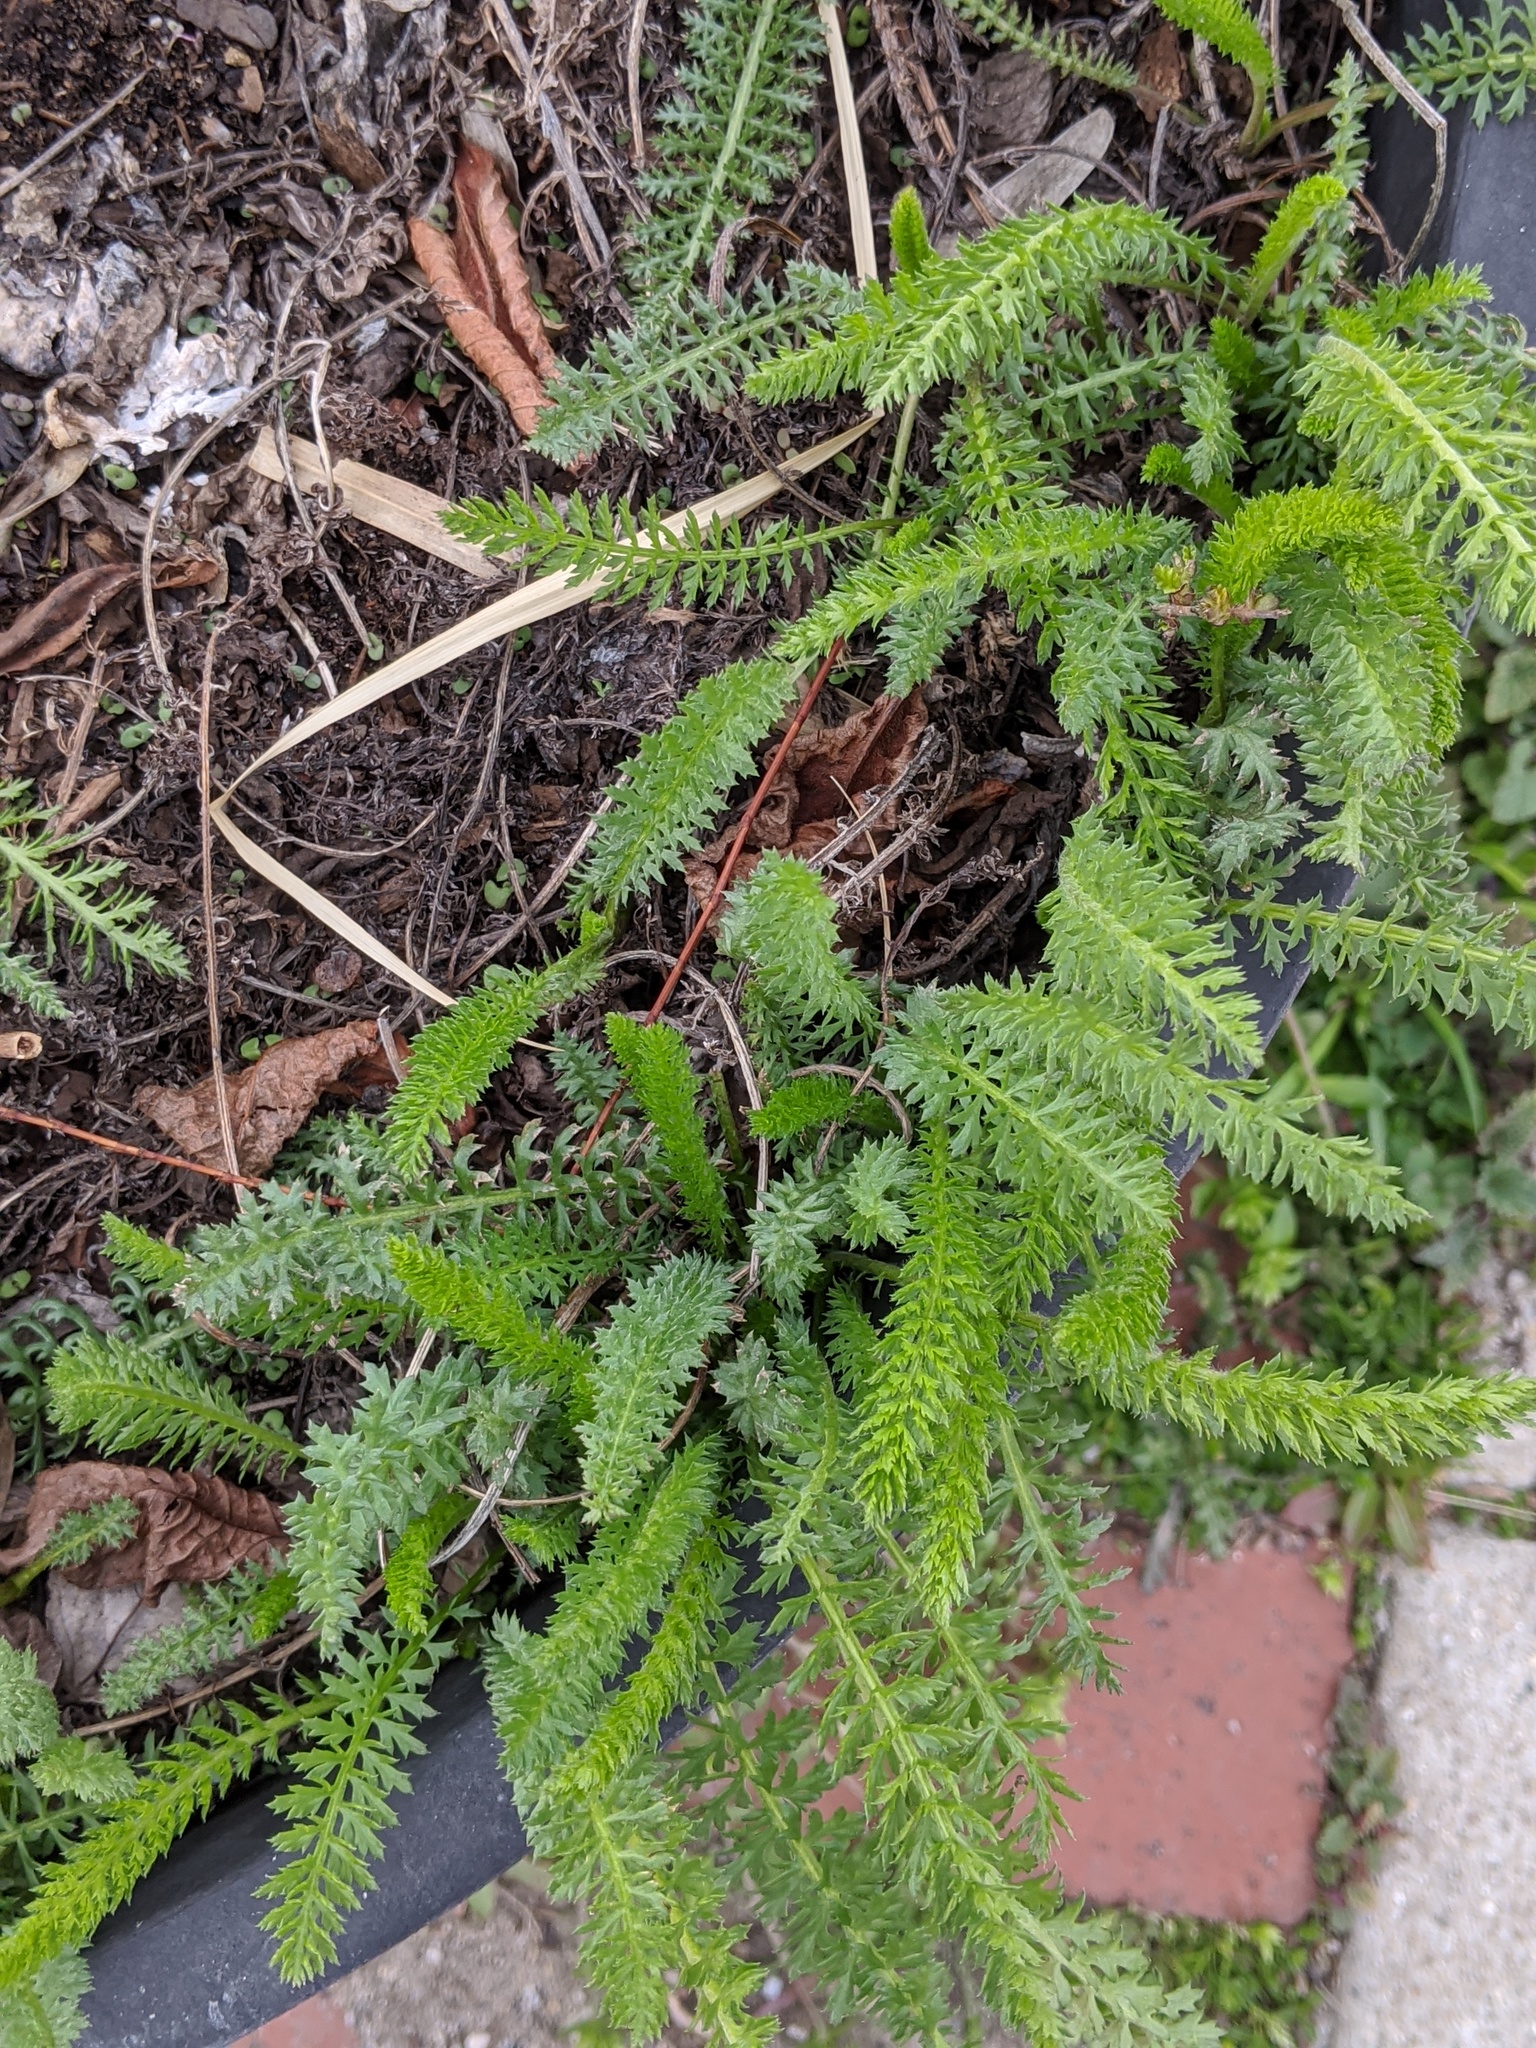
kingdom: Plantae
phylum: Tracheophyta
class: Magnoliopsida
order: Asterales
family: Asteraceae
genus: Achillea
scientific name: Achillea millefolium
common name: Yarrow
